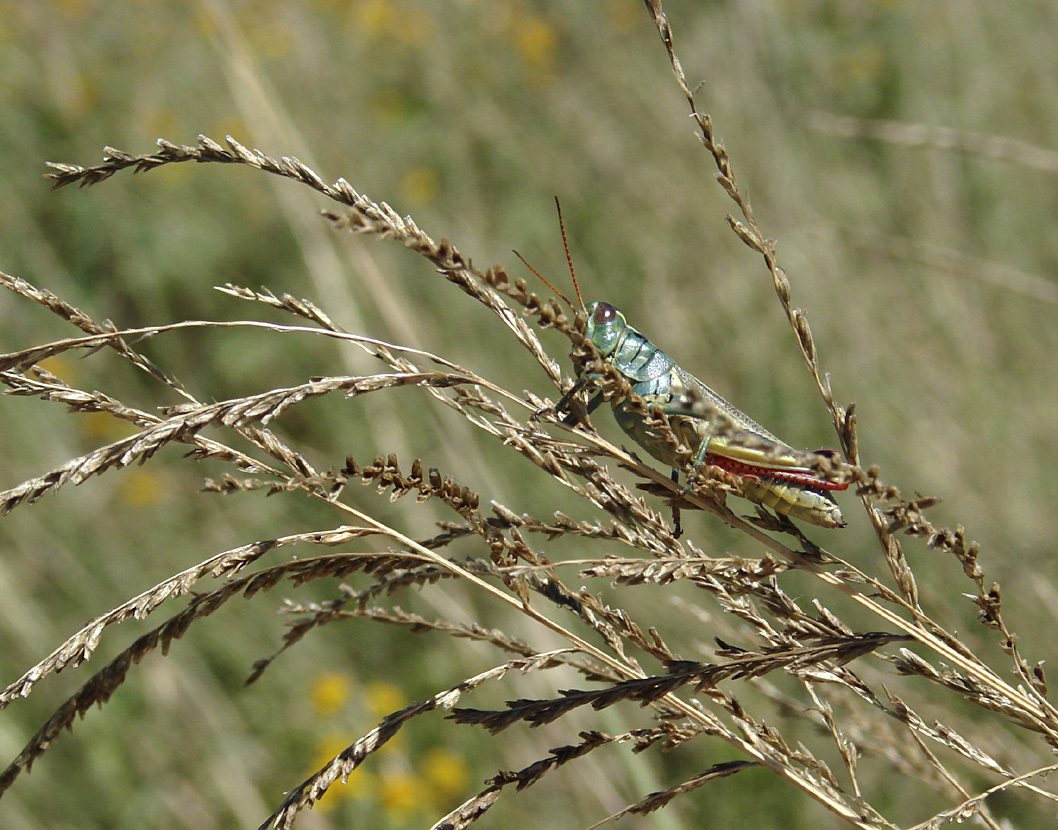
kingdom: Animalia
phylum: Arthropoda
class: Insecta
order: Orthoptera
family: Acrididae
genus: Melanoplus
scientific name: Melanoplus thomasi
